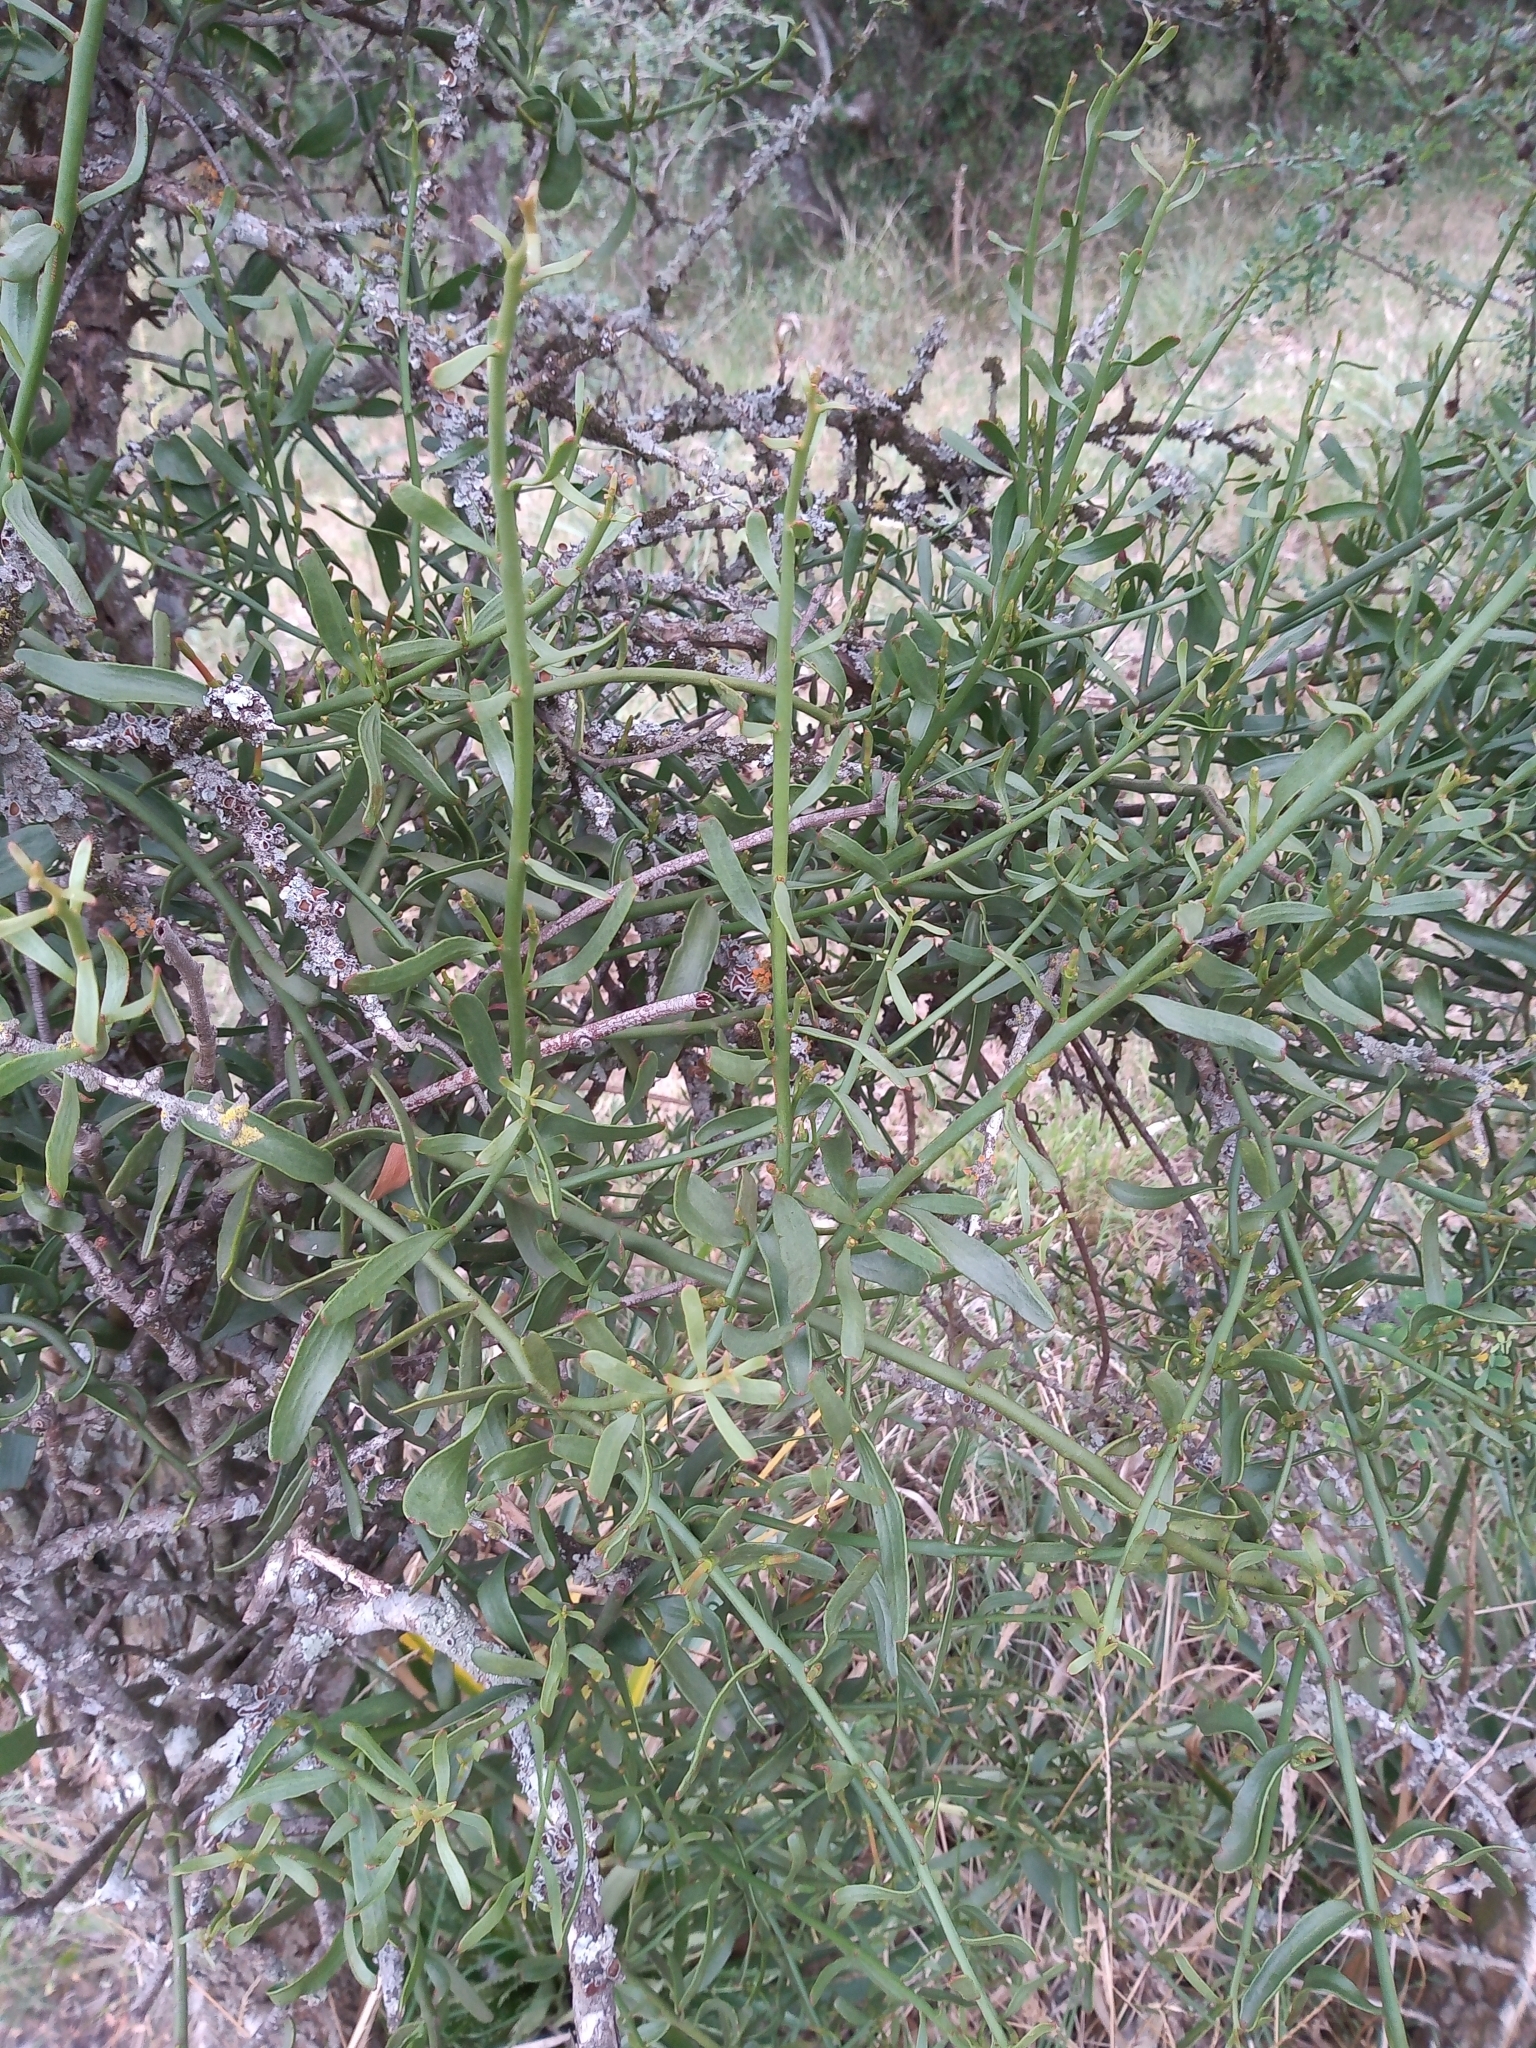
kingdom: Plantae
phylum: Tracheophyta
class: Magnoliopsida
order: Santalales
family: Loranthaceae
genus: Ligaria
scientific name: Ligaria cuneifolia
